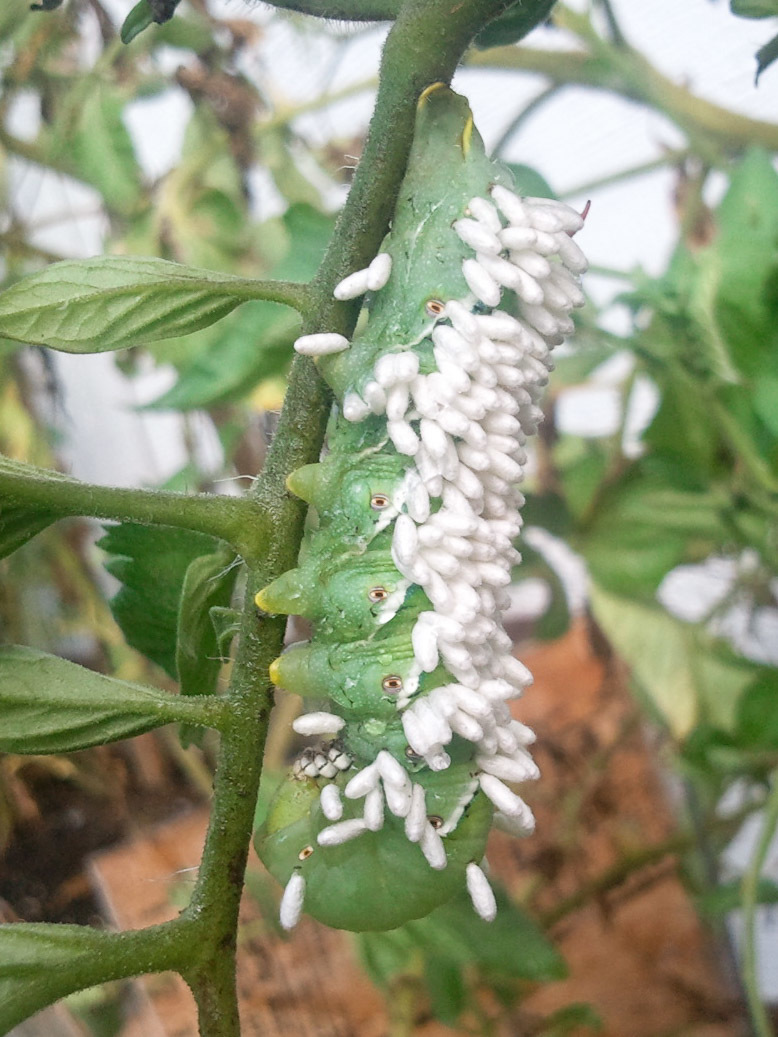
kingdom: Animalia
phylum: Arthropoda
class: Insecta
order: Hymenoptera
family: Braconidae
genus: Cotesia
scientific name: Cotesia congregata
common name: Hornworm parasitoid wasp
